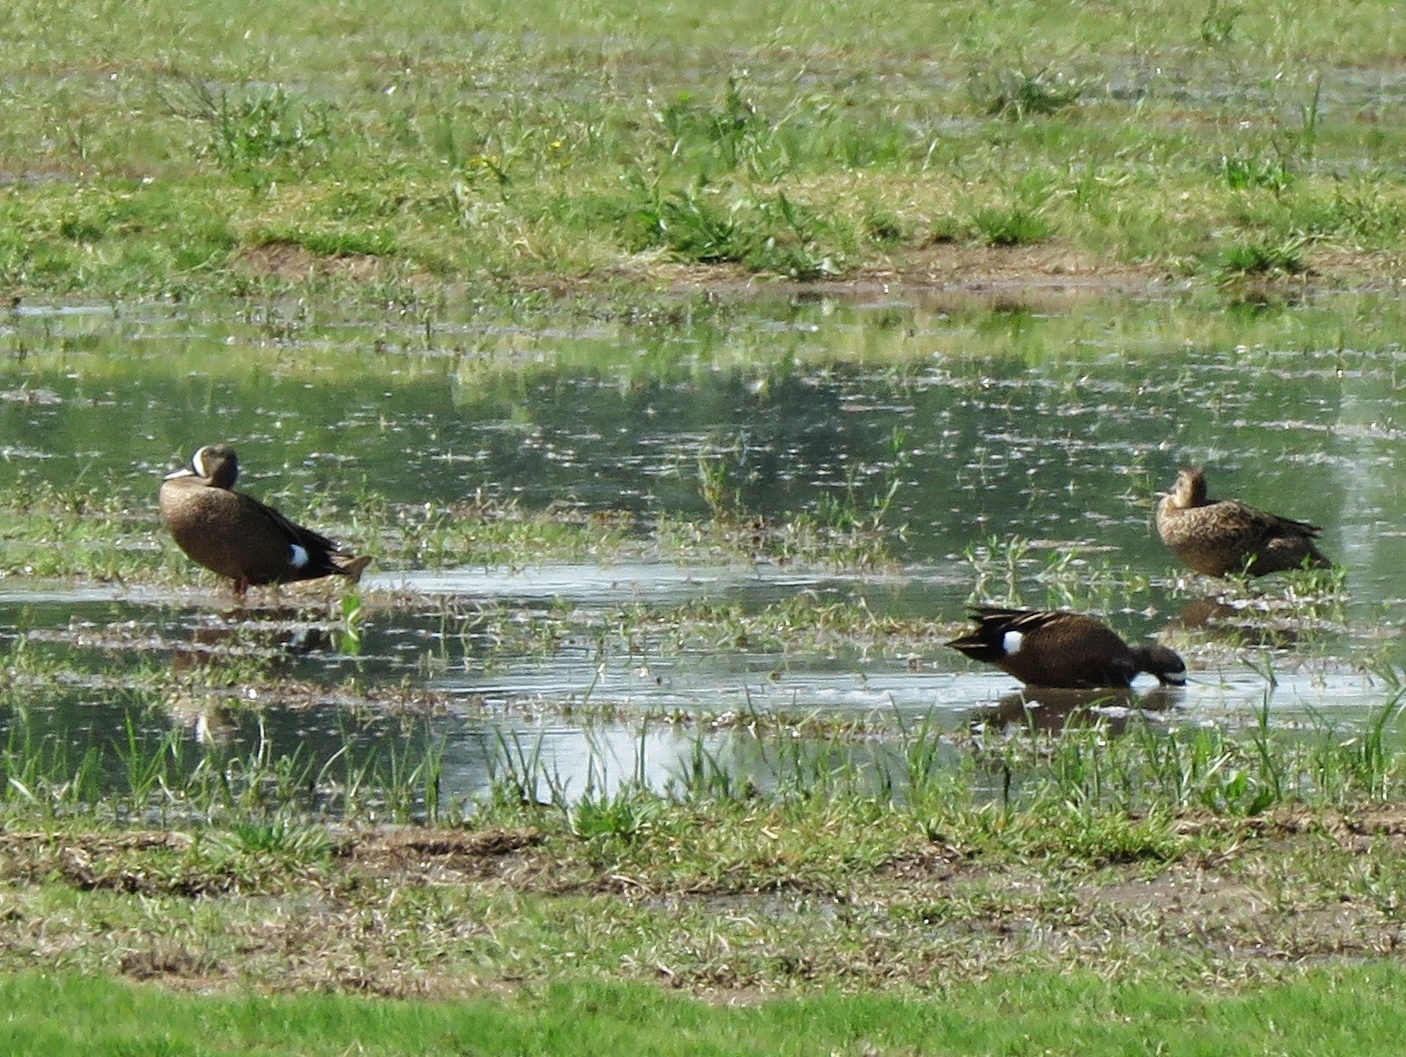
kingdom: Animalia
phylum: Chordata
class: Aves
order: Anseriformes
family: Anatidae
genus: Spatula
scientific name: Spatula discors
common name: Blue-winged teal
